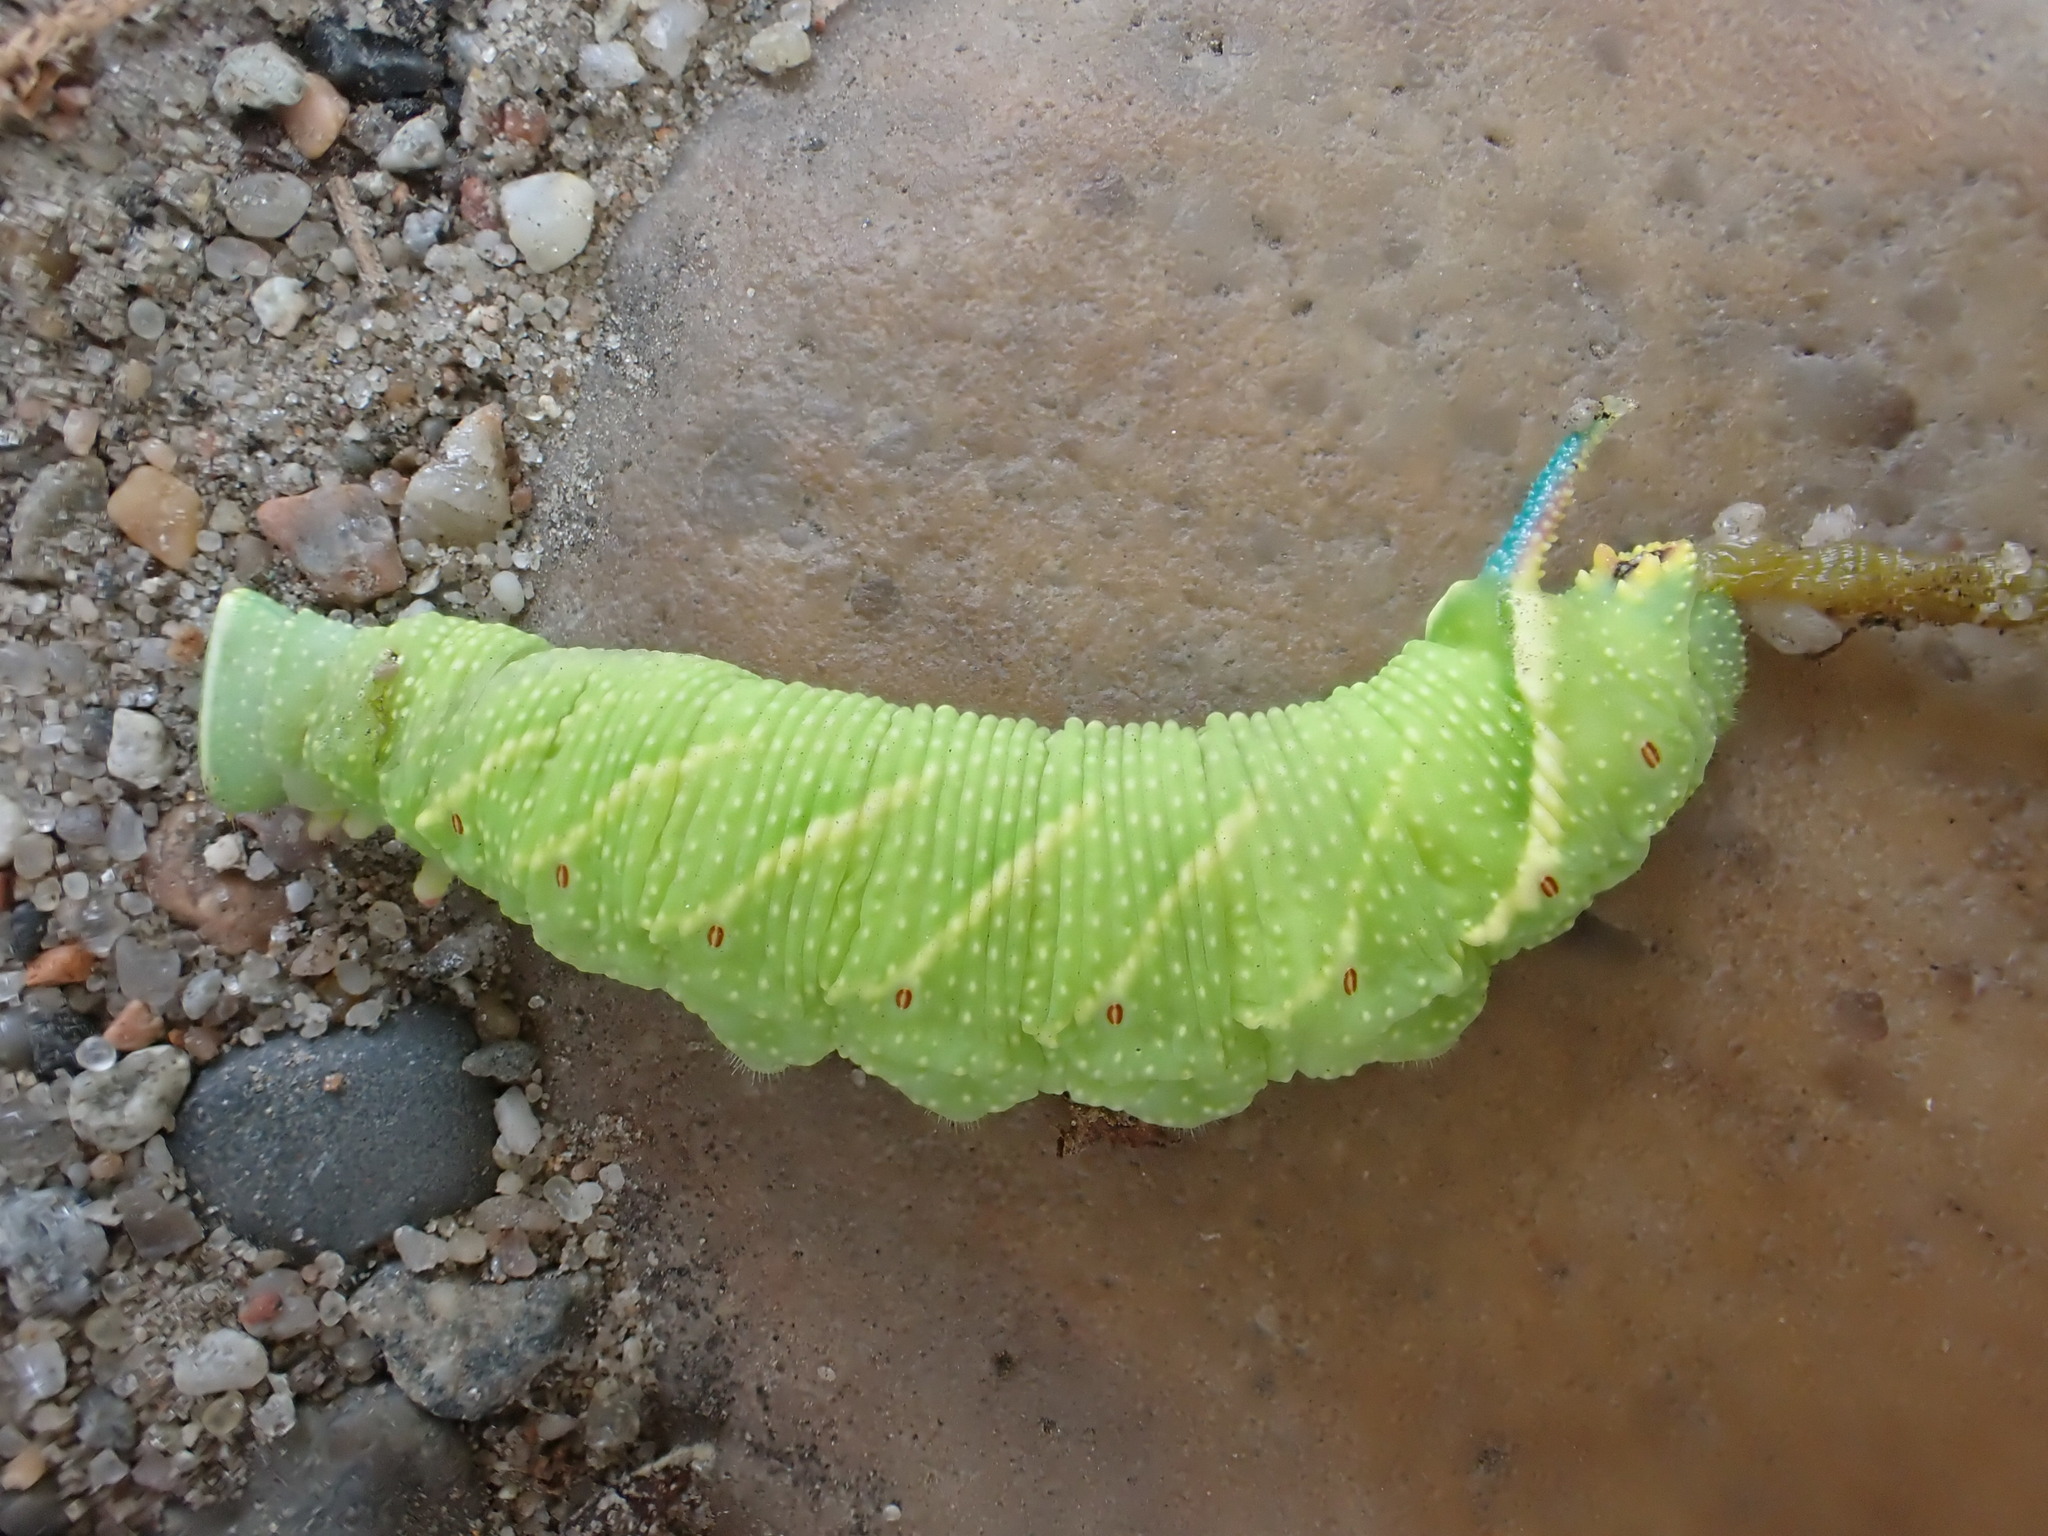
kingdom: Animalia
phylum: Arthropoda
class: Insecta
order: Lepidoptera
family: Sphingidae
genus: Mimas
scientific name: Mimas tiliae
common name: Lime hawk-moth
